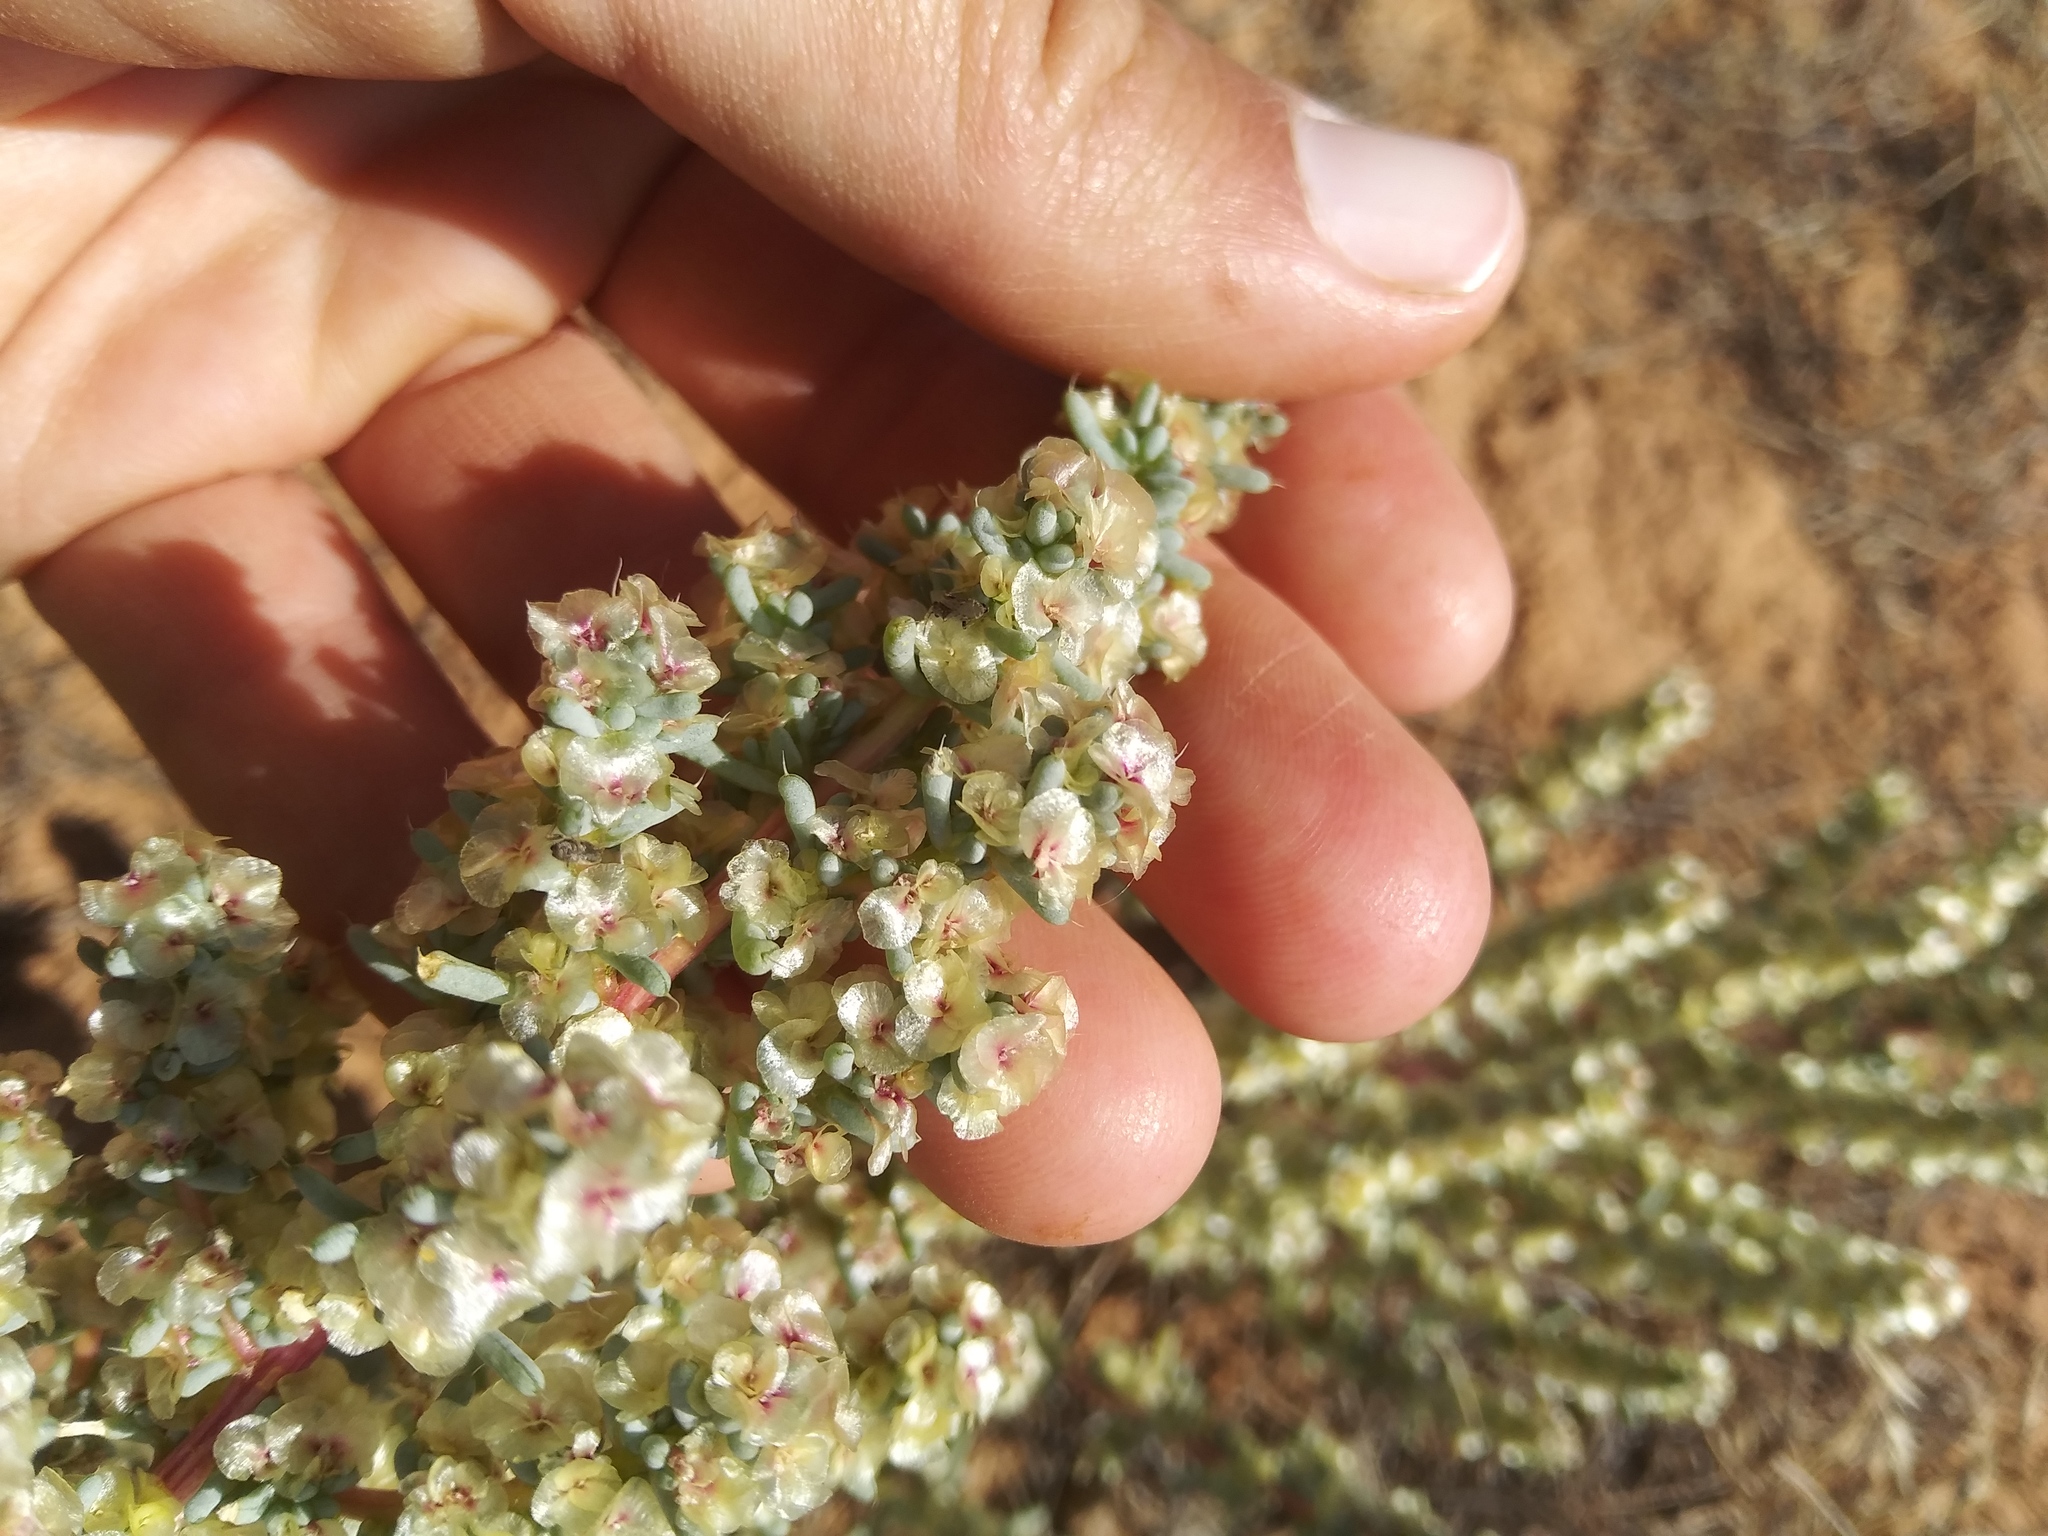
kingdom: Plantae
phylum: Tracheophyta
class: Magnoliopsida
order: Caryophyllales
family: Amaranthaceae
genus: Halogeton
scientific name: Halogeton glomeratus
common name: Saltlover
